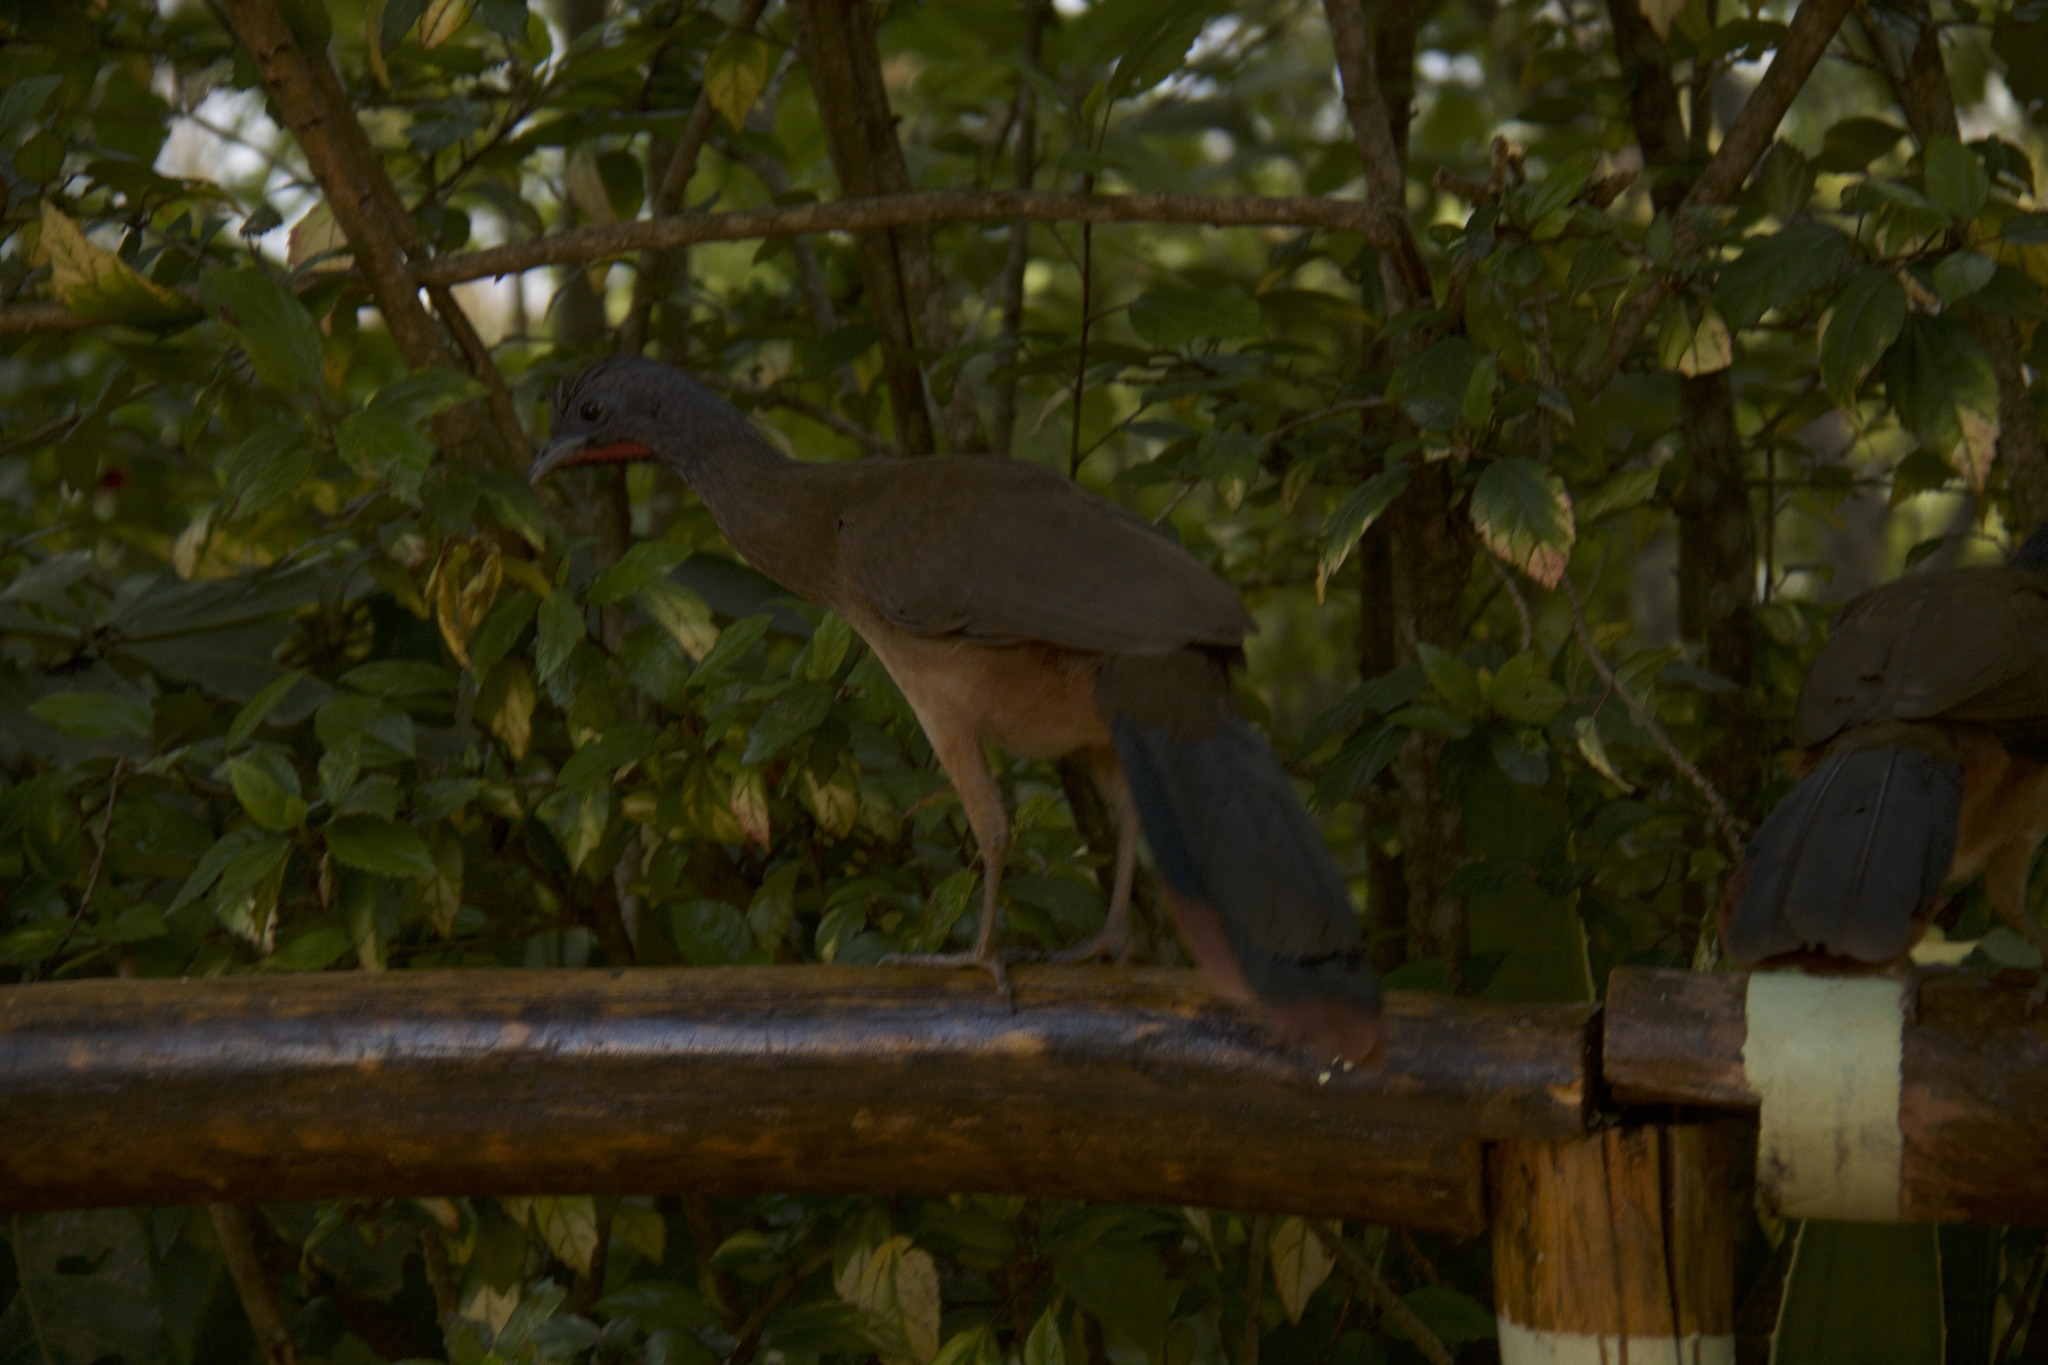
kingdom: Animalia
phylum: Chordata
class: Aves
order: Galliformes
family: Cracidae
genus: Ortalis
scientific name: Ortalis ruficauda
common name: Rufous-vented chachalaca
